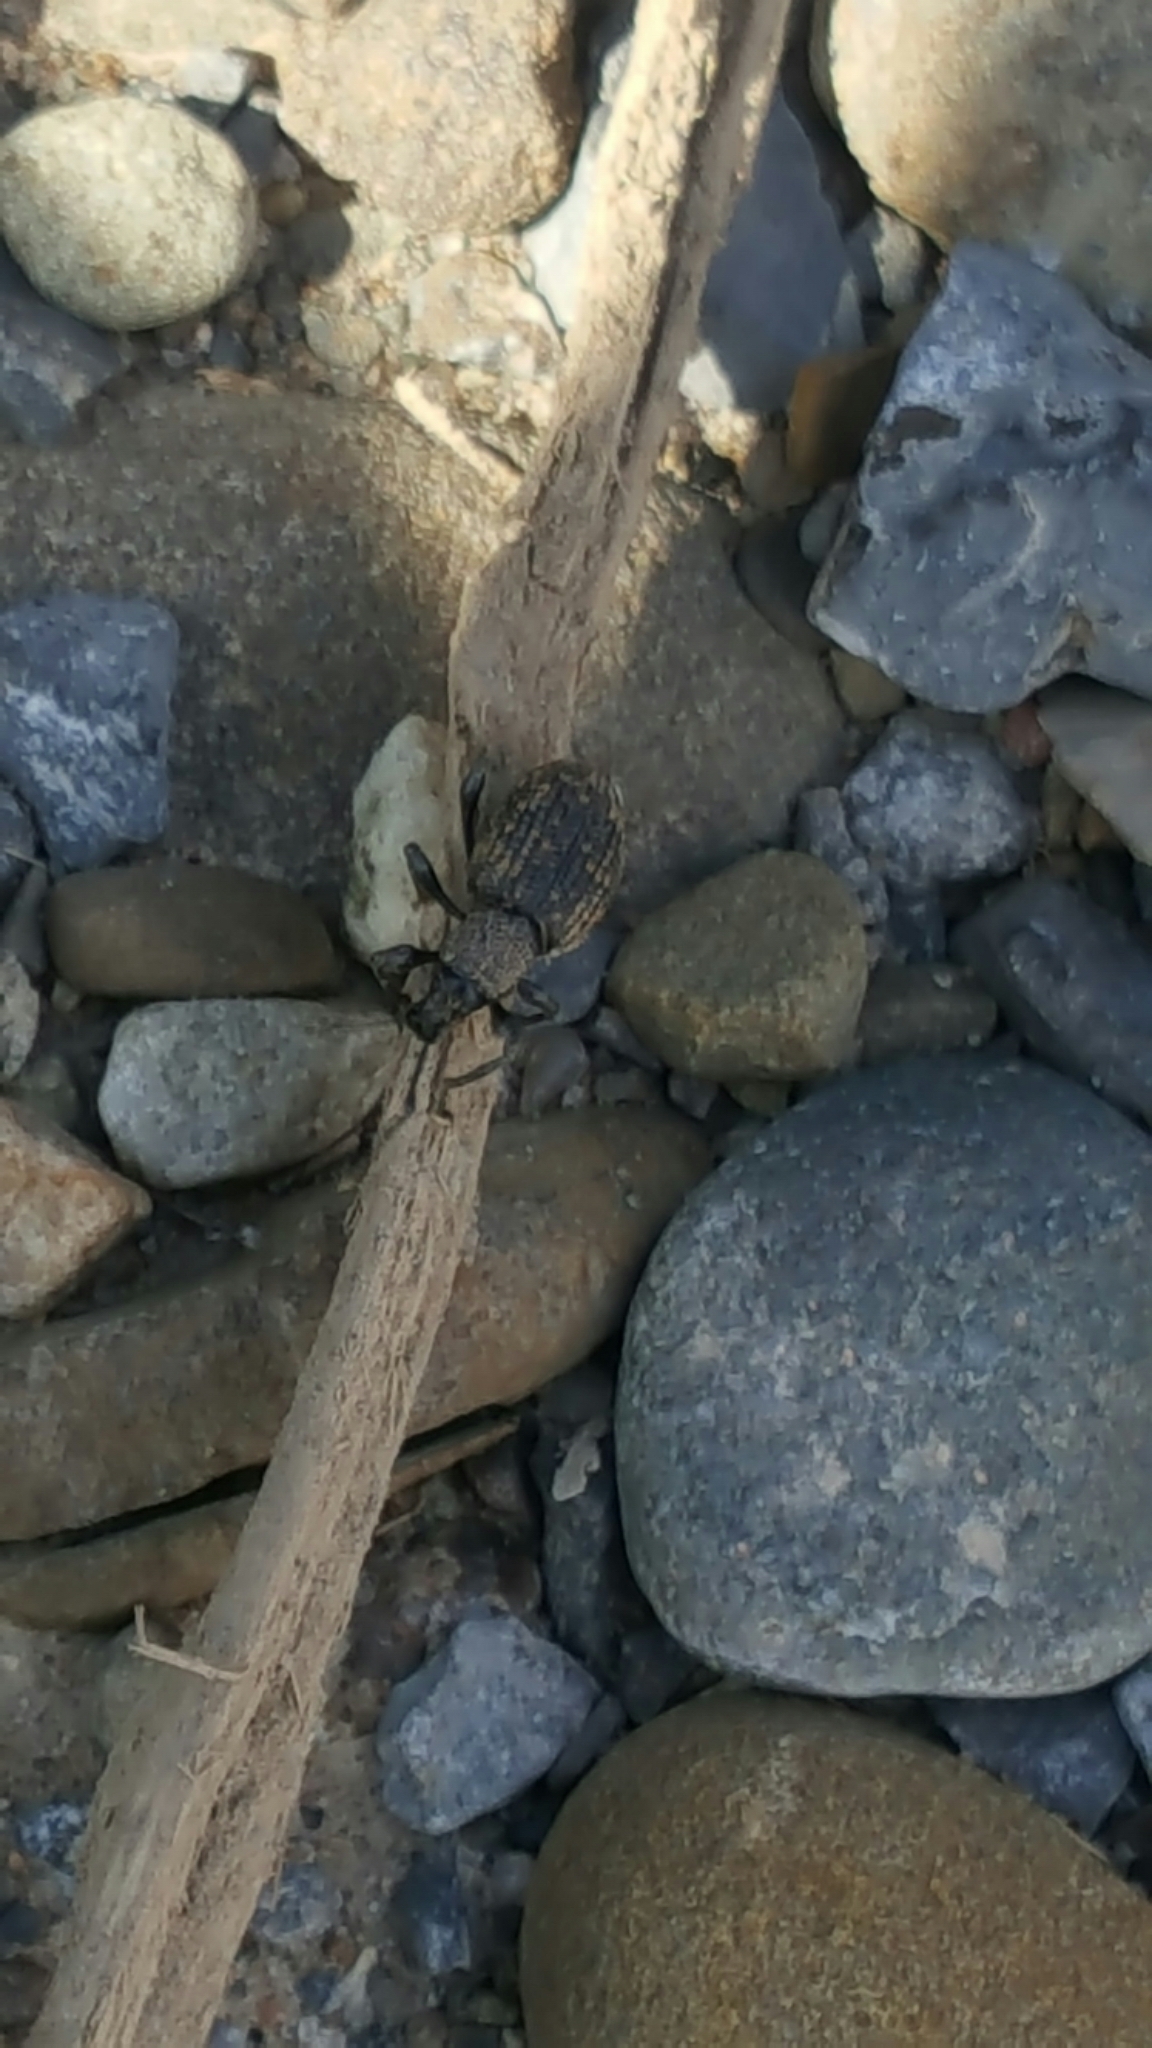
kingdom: Animalia
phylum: Arthropoda
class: Insecta
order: Coleoptera
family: Curculionidae
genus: Otiorhynchus
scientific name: Otiorhynchus sulcatus
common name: Black vine weevil
